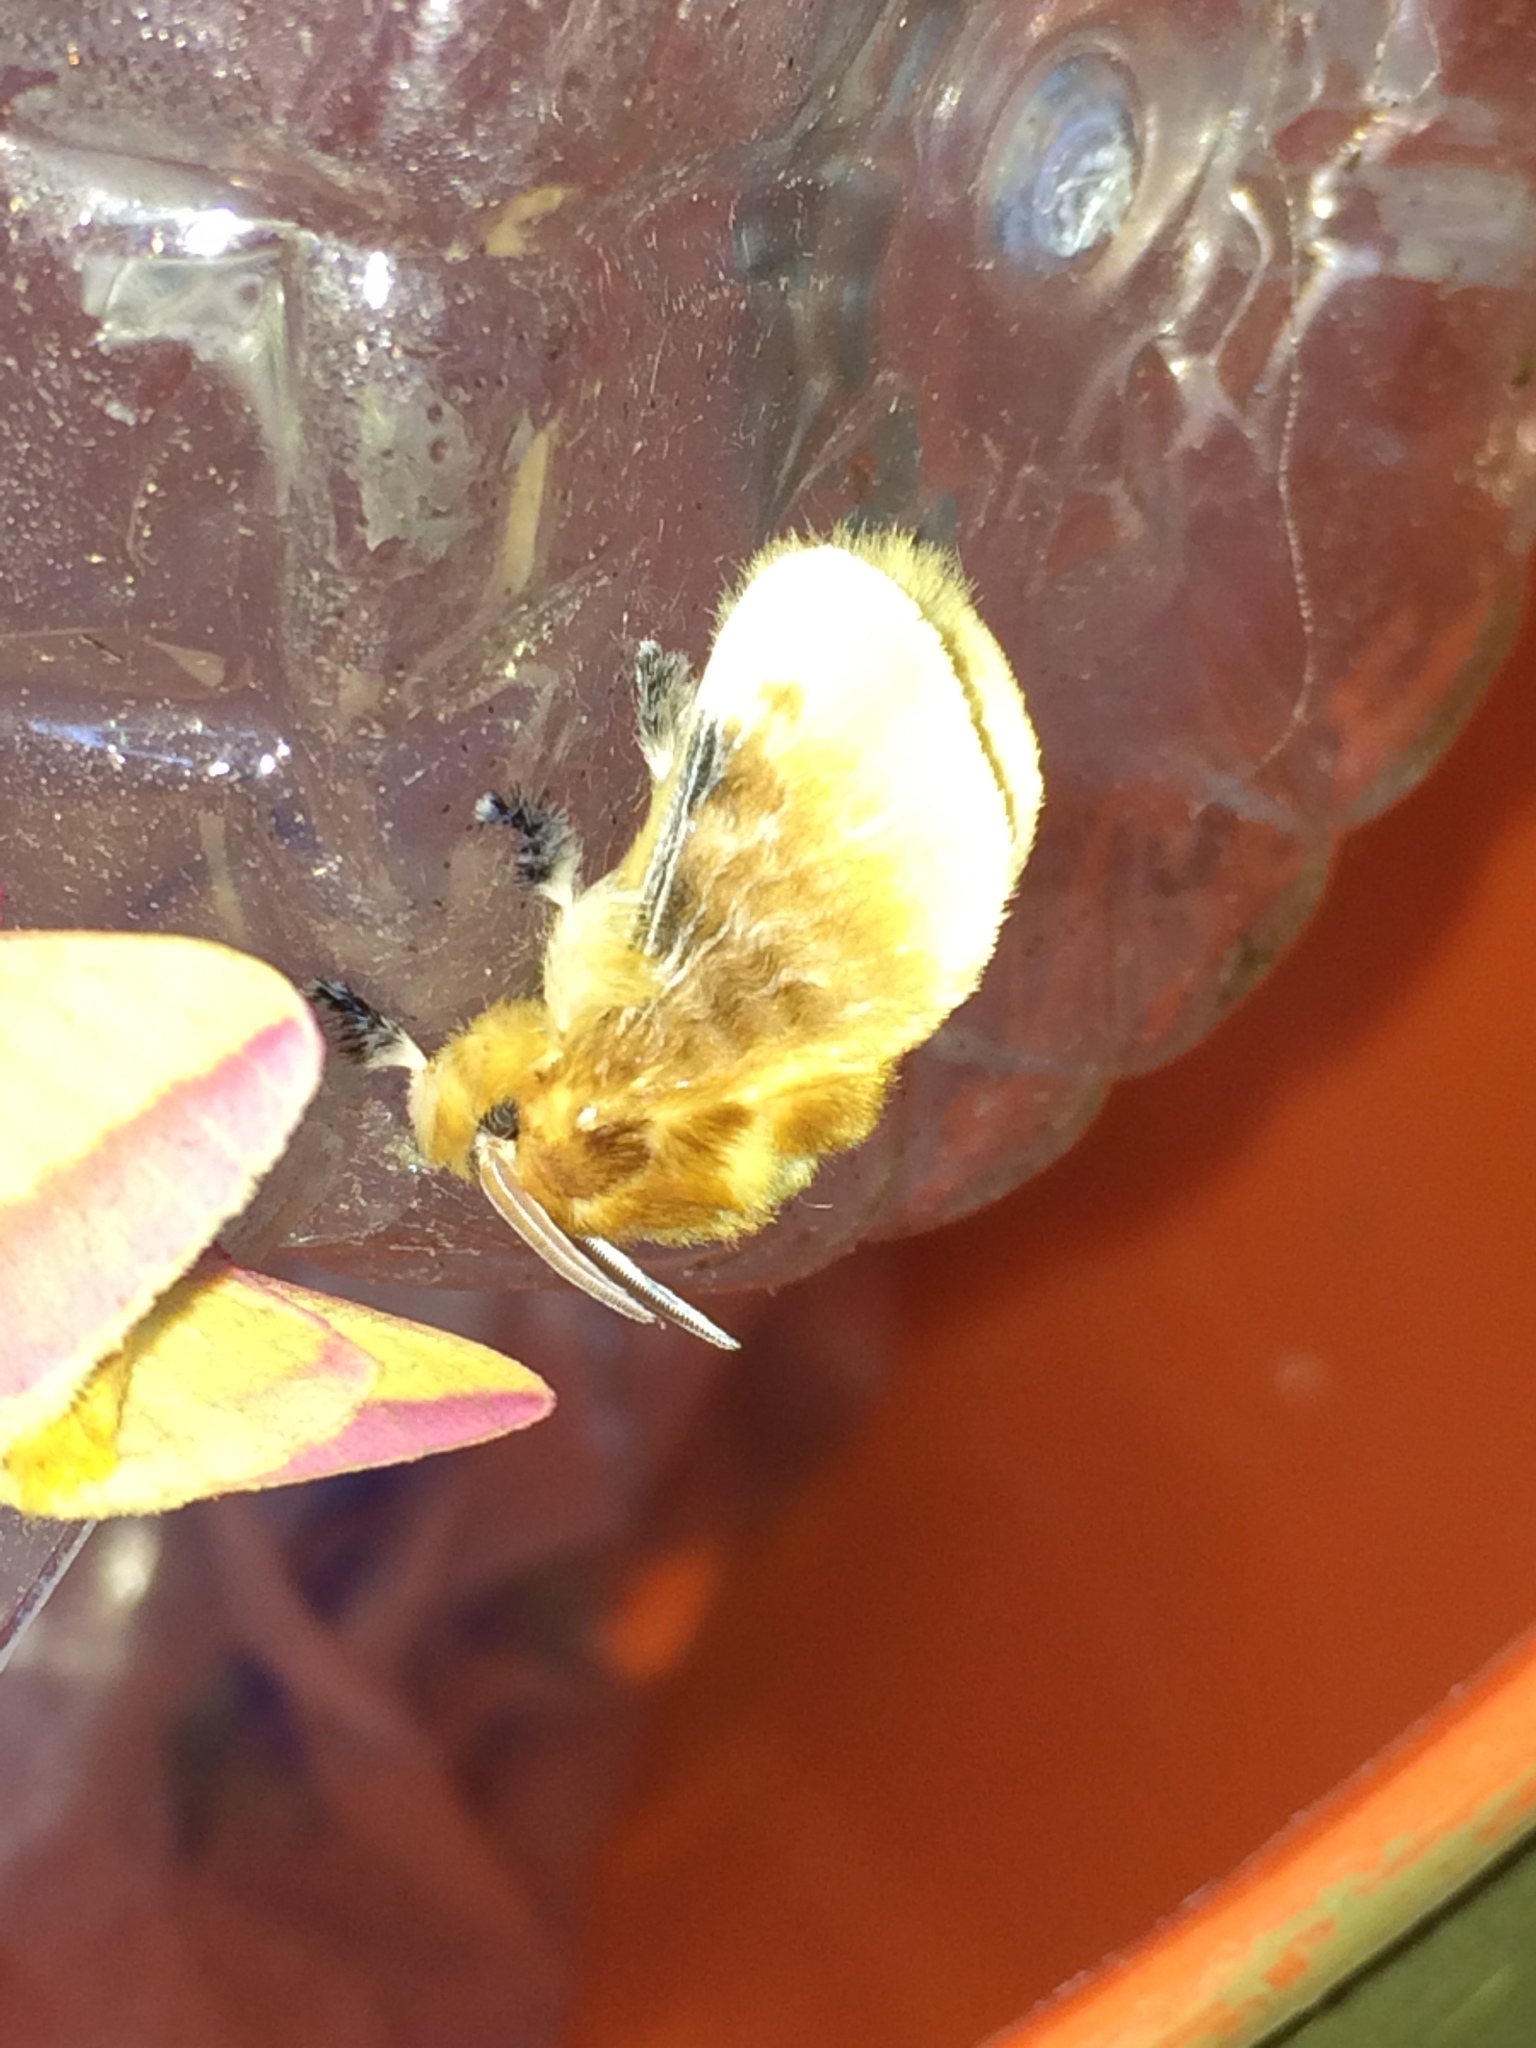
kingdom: Animalia
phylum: Arthropoda
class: Insecta
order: Lepidoptera
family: Megalopygidae
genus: Megalopyge
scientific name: Megalopyge opercularis
